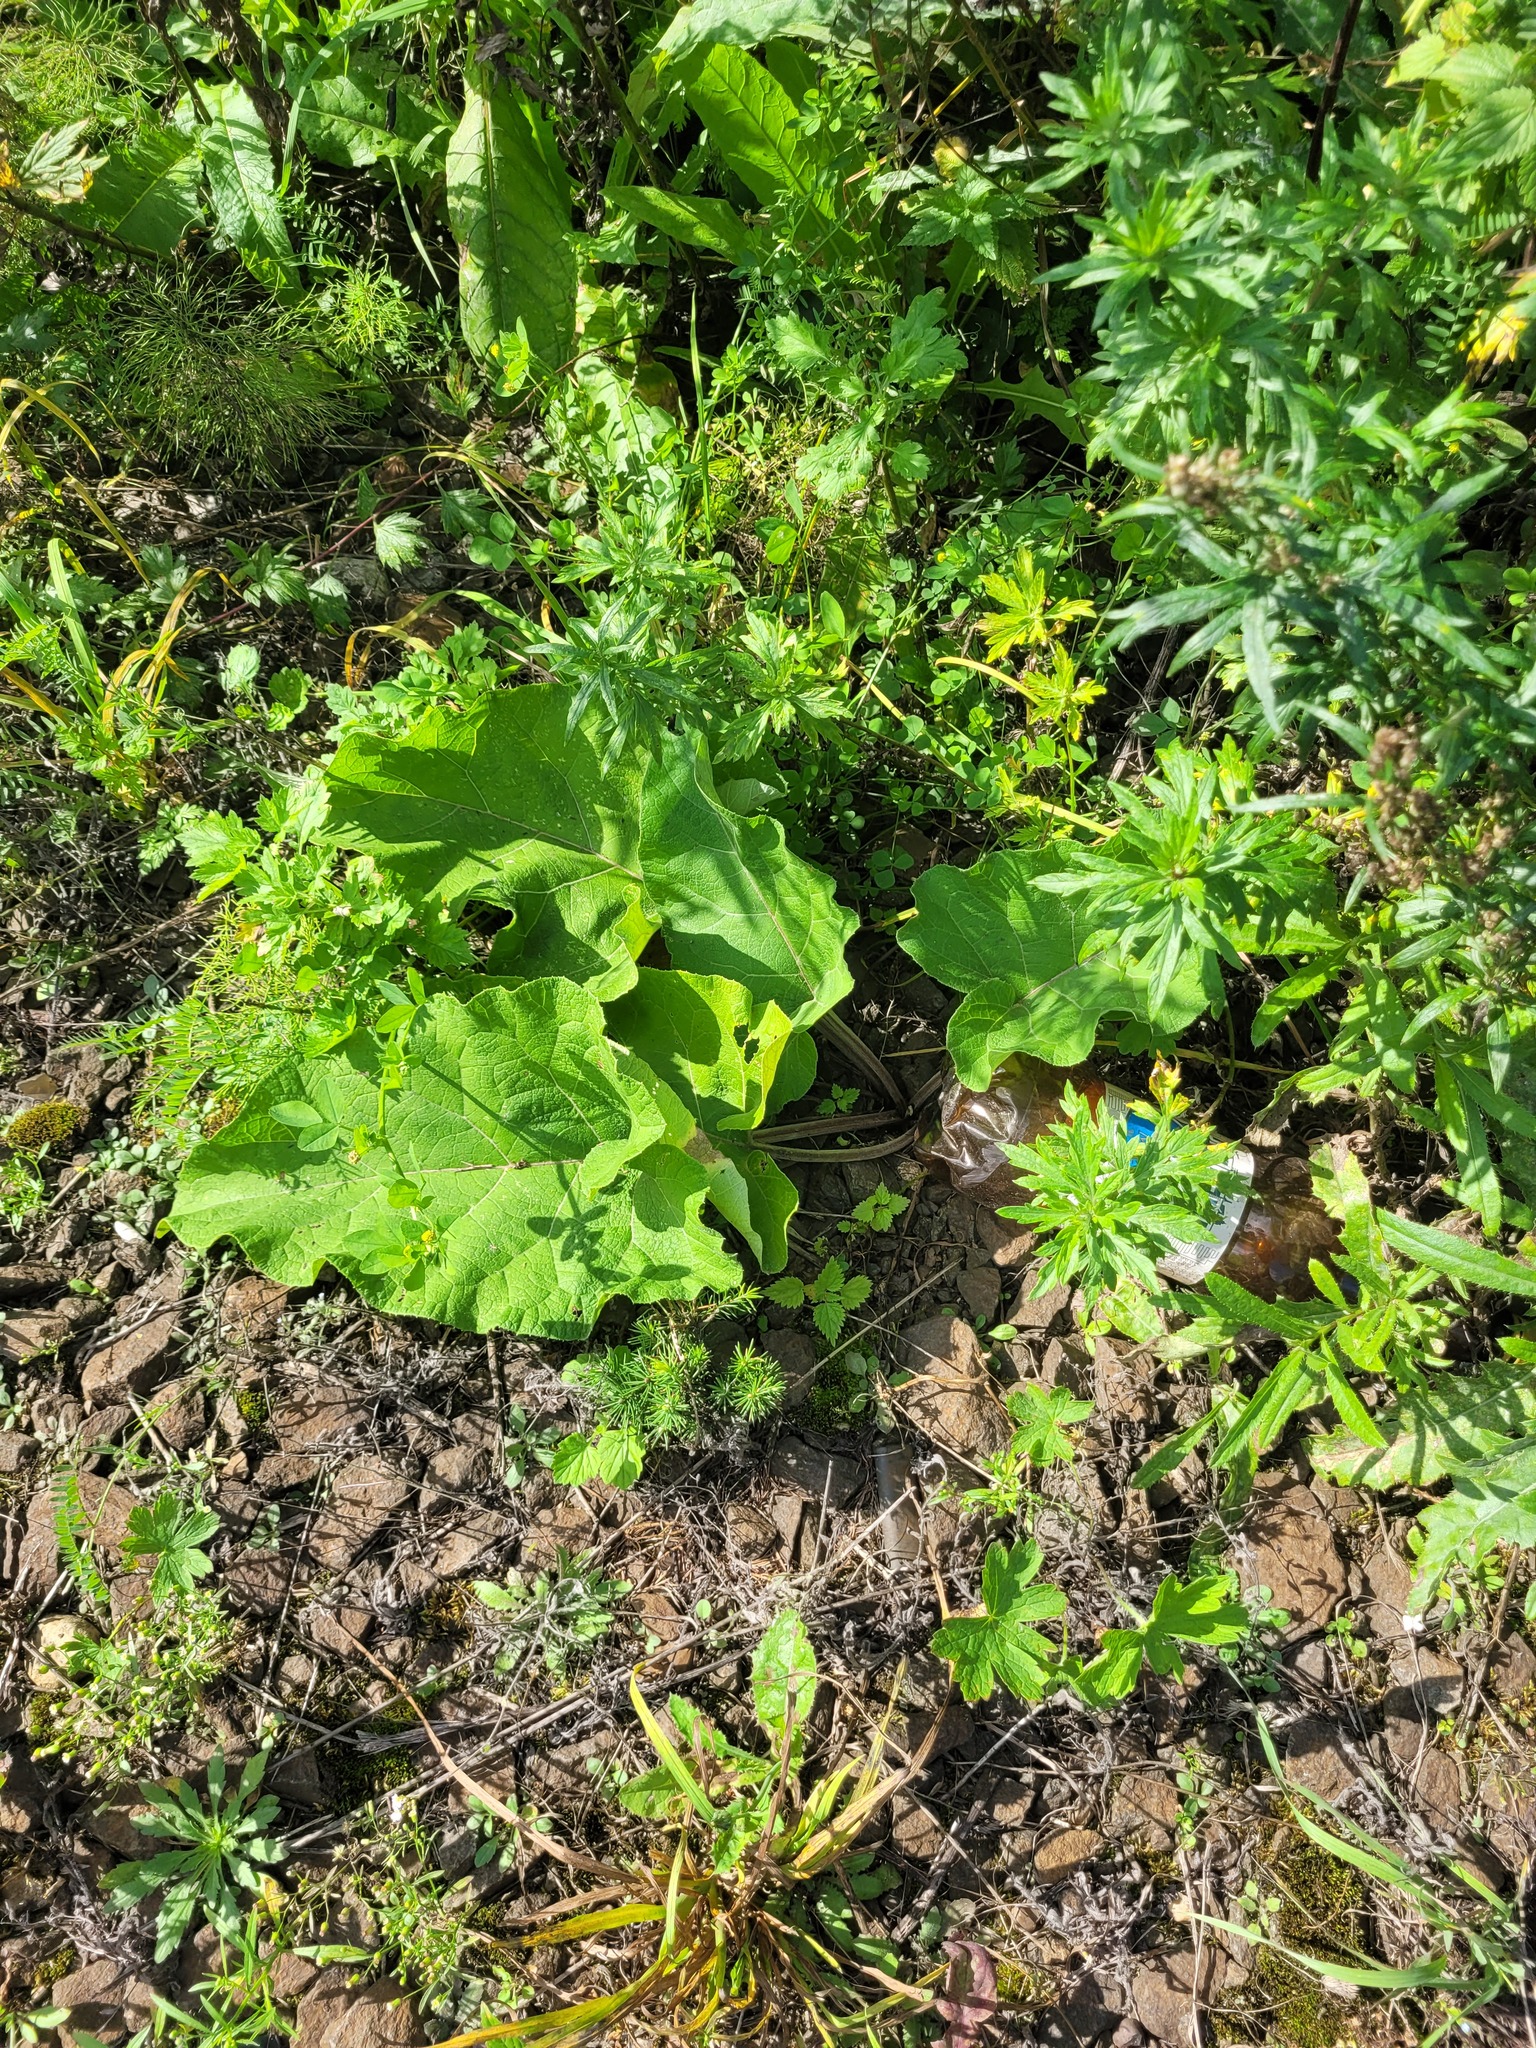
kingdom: Plantae
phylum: Tracheophyta
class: Magnoliopsida
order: Asterales
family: Asteraceae
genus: Arctium
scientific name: Arctium
